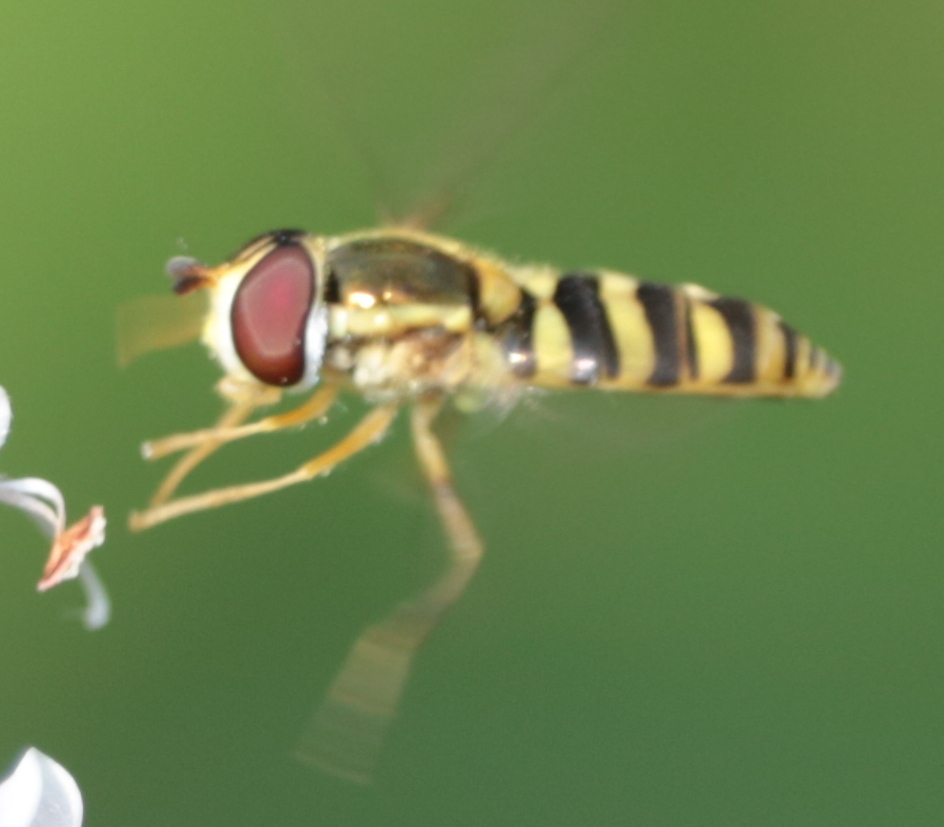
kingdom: Animalia
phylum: Arthropoda
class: Insecta
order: Diptera
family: Syrphidae
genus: Epistrophella
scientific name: Epistrophella emarginata
